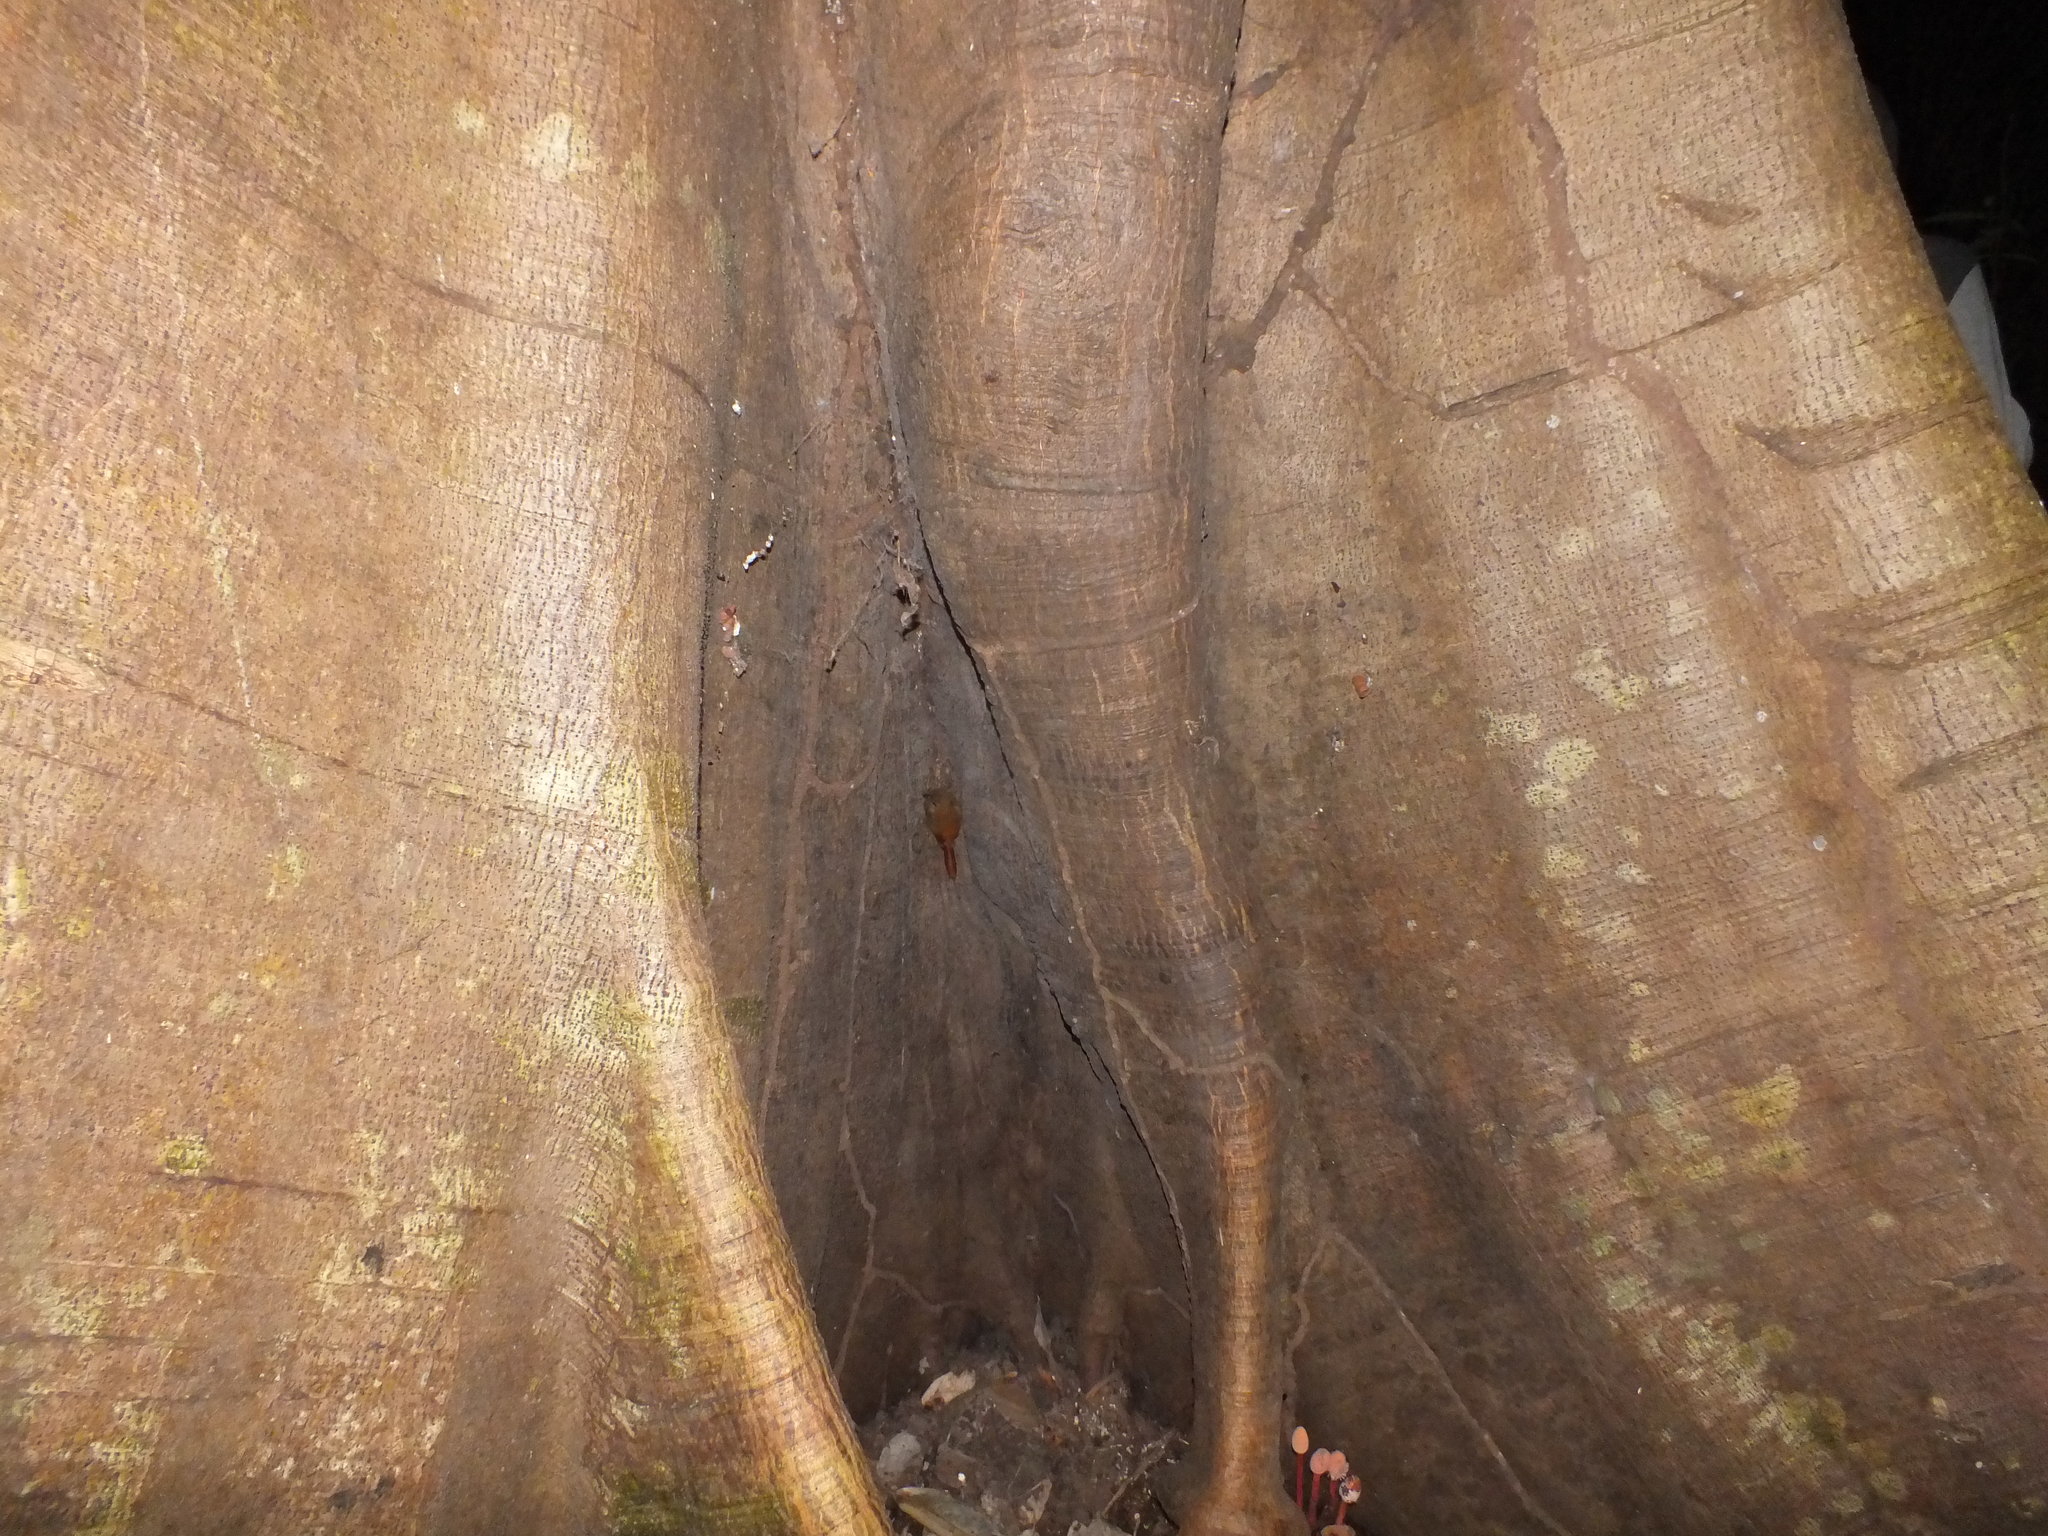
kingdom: Animalia
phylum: Chordata
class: Aves
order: Passeriformes
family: Furnariidae
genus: Glyphorynchus
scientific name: Glyphorynchus spirurus
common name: Wedge-billed woodcreeper
